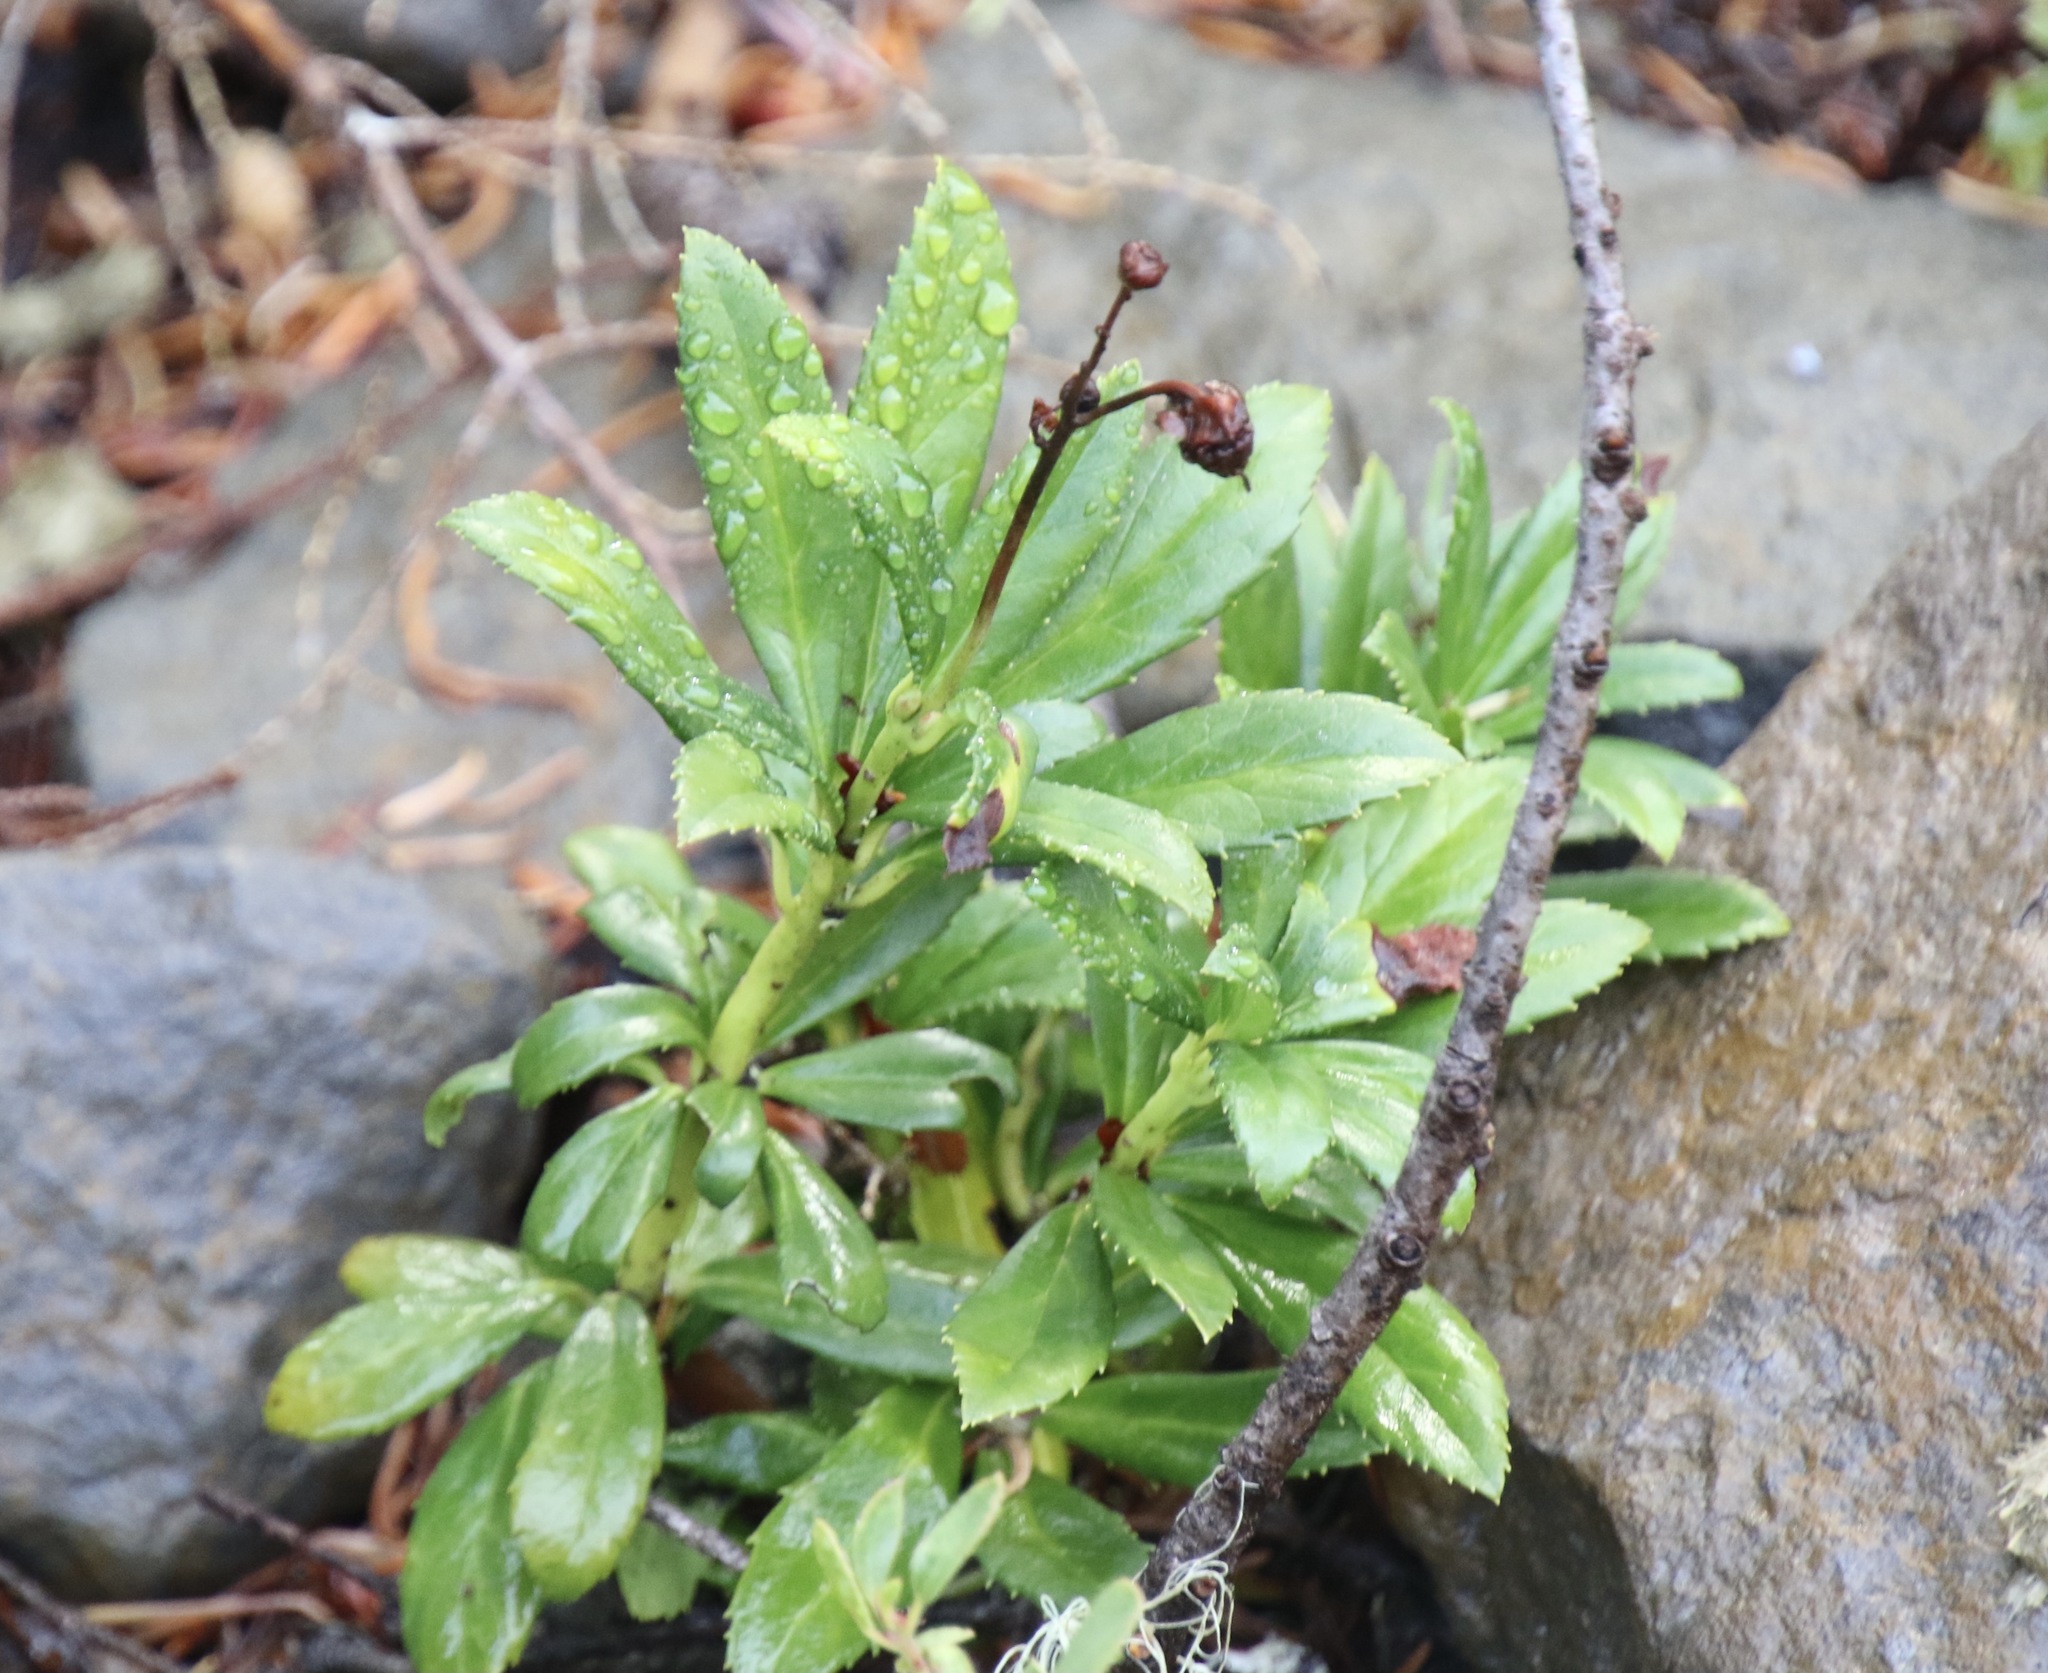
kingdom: Plantae
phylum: Tracheophyta
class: Magnoliopsida
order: Ericales
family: Ericaceae
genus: Chimaphila
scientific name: Chimaphila umbellata
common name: Pipsissewa
